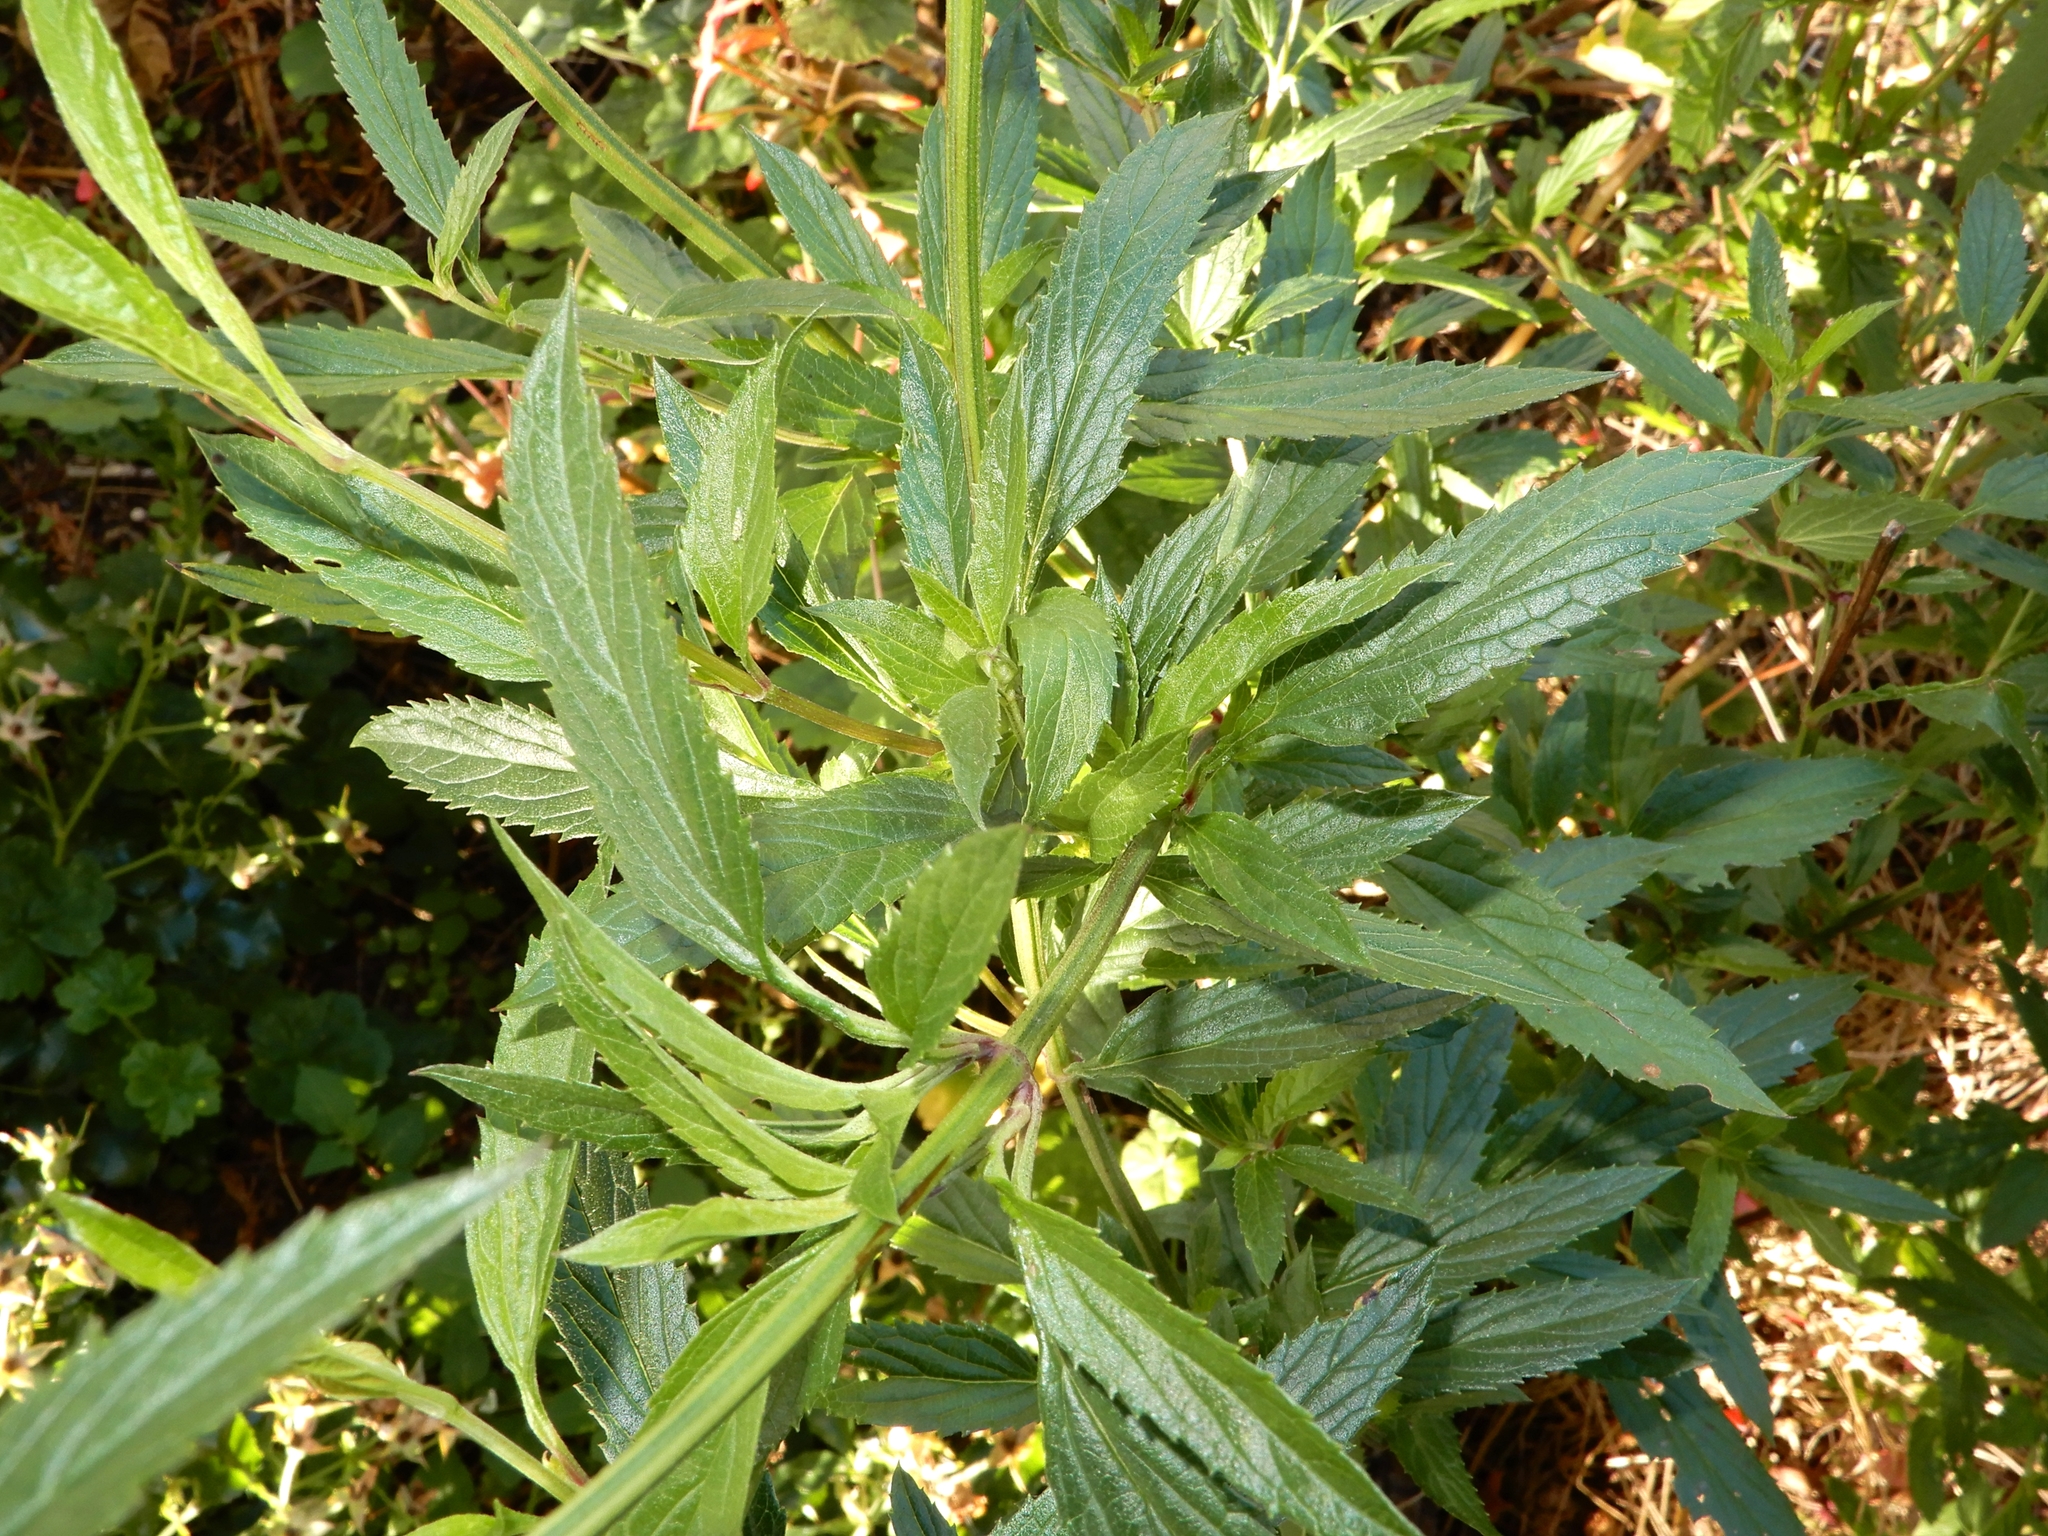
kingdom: Plantae
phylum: Tracheophyta
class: Magnoliopsida
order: Lamiales
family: Lamiaceae
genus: Salvia
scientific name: Salvia uliginosa
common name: Bog sage
